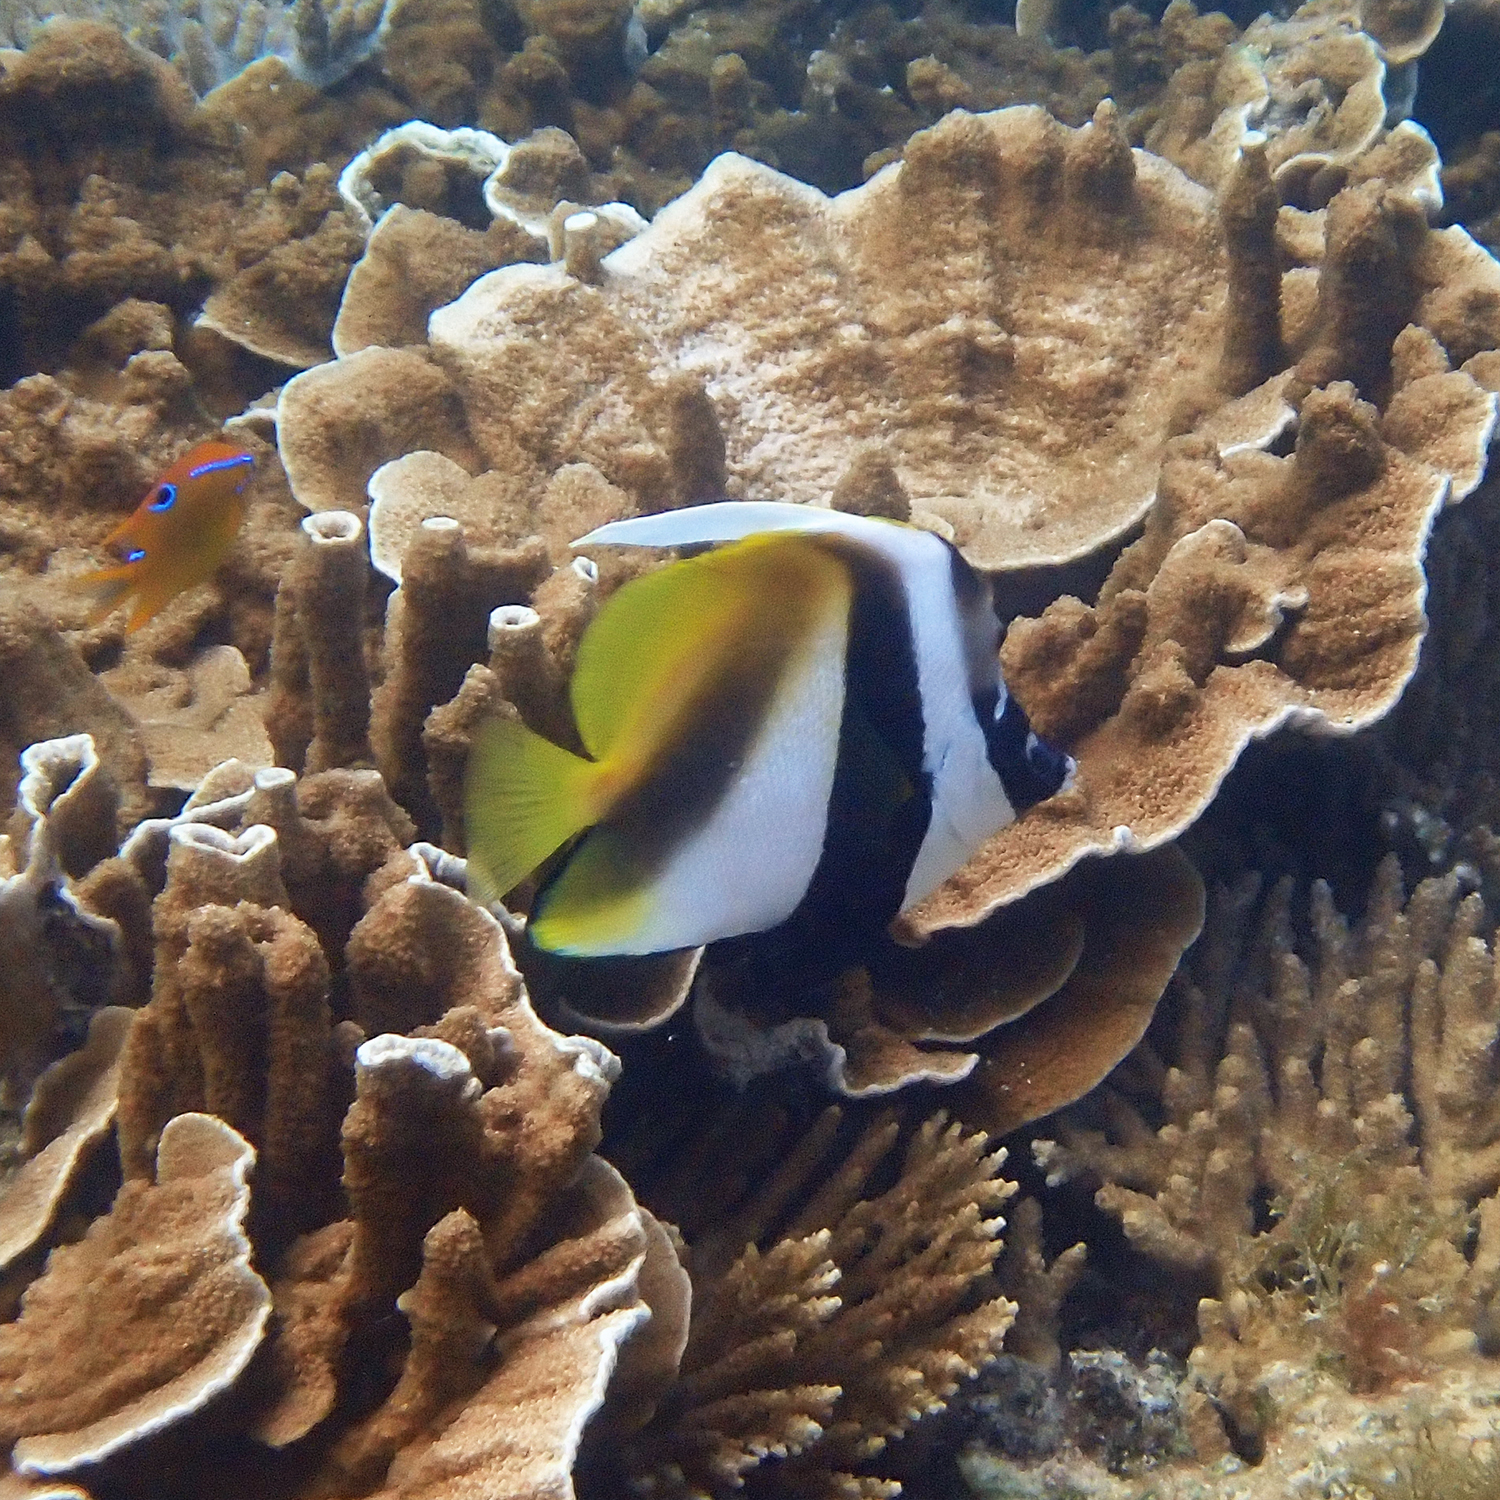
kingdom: Animalia
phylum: Chordata
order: Perciformes
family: Chaetodontidae
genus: Heniochus
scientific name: Heniochus monoceros
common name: Masked bannerfish
